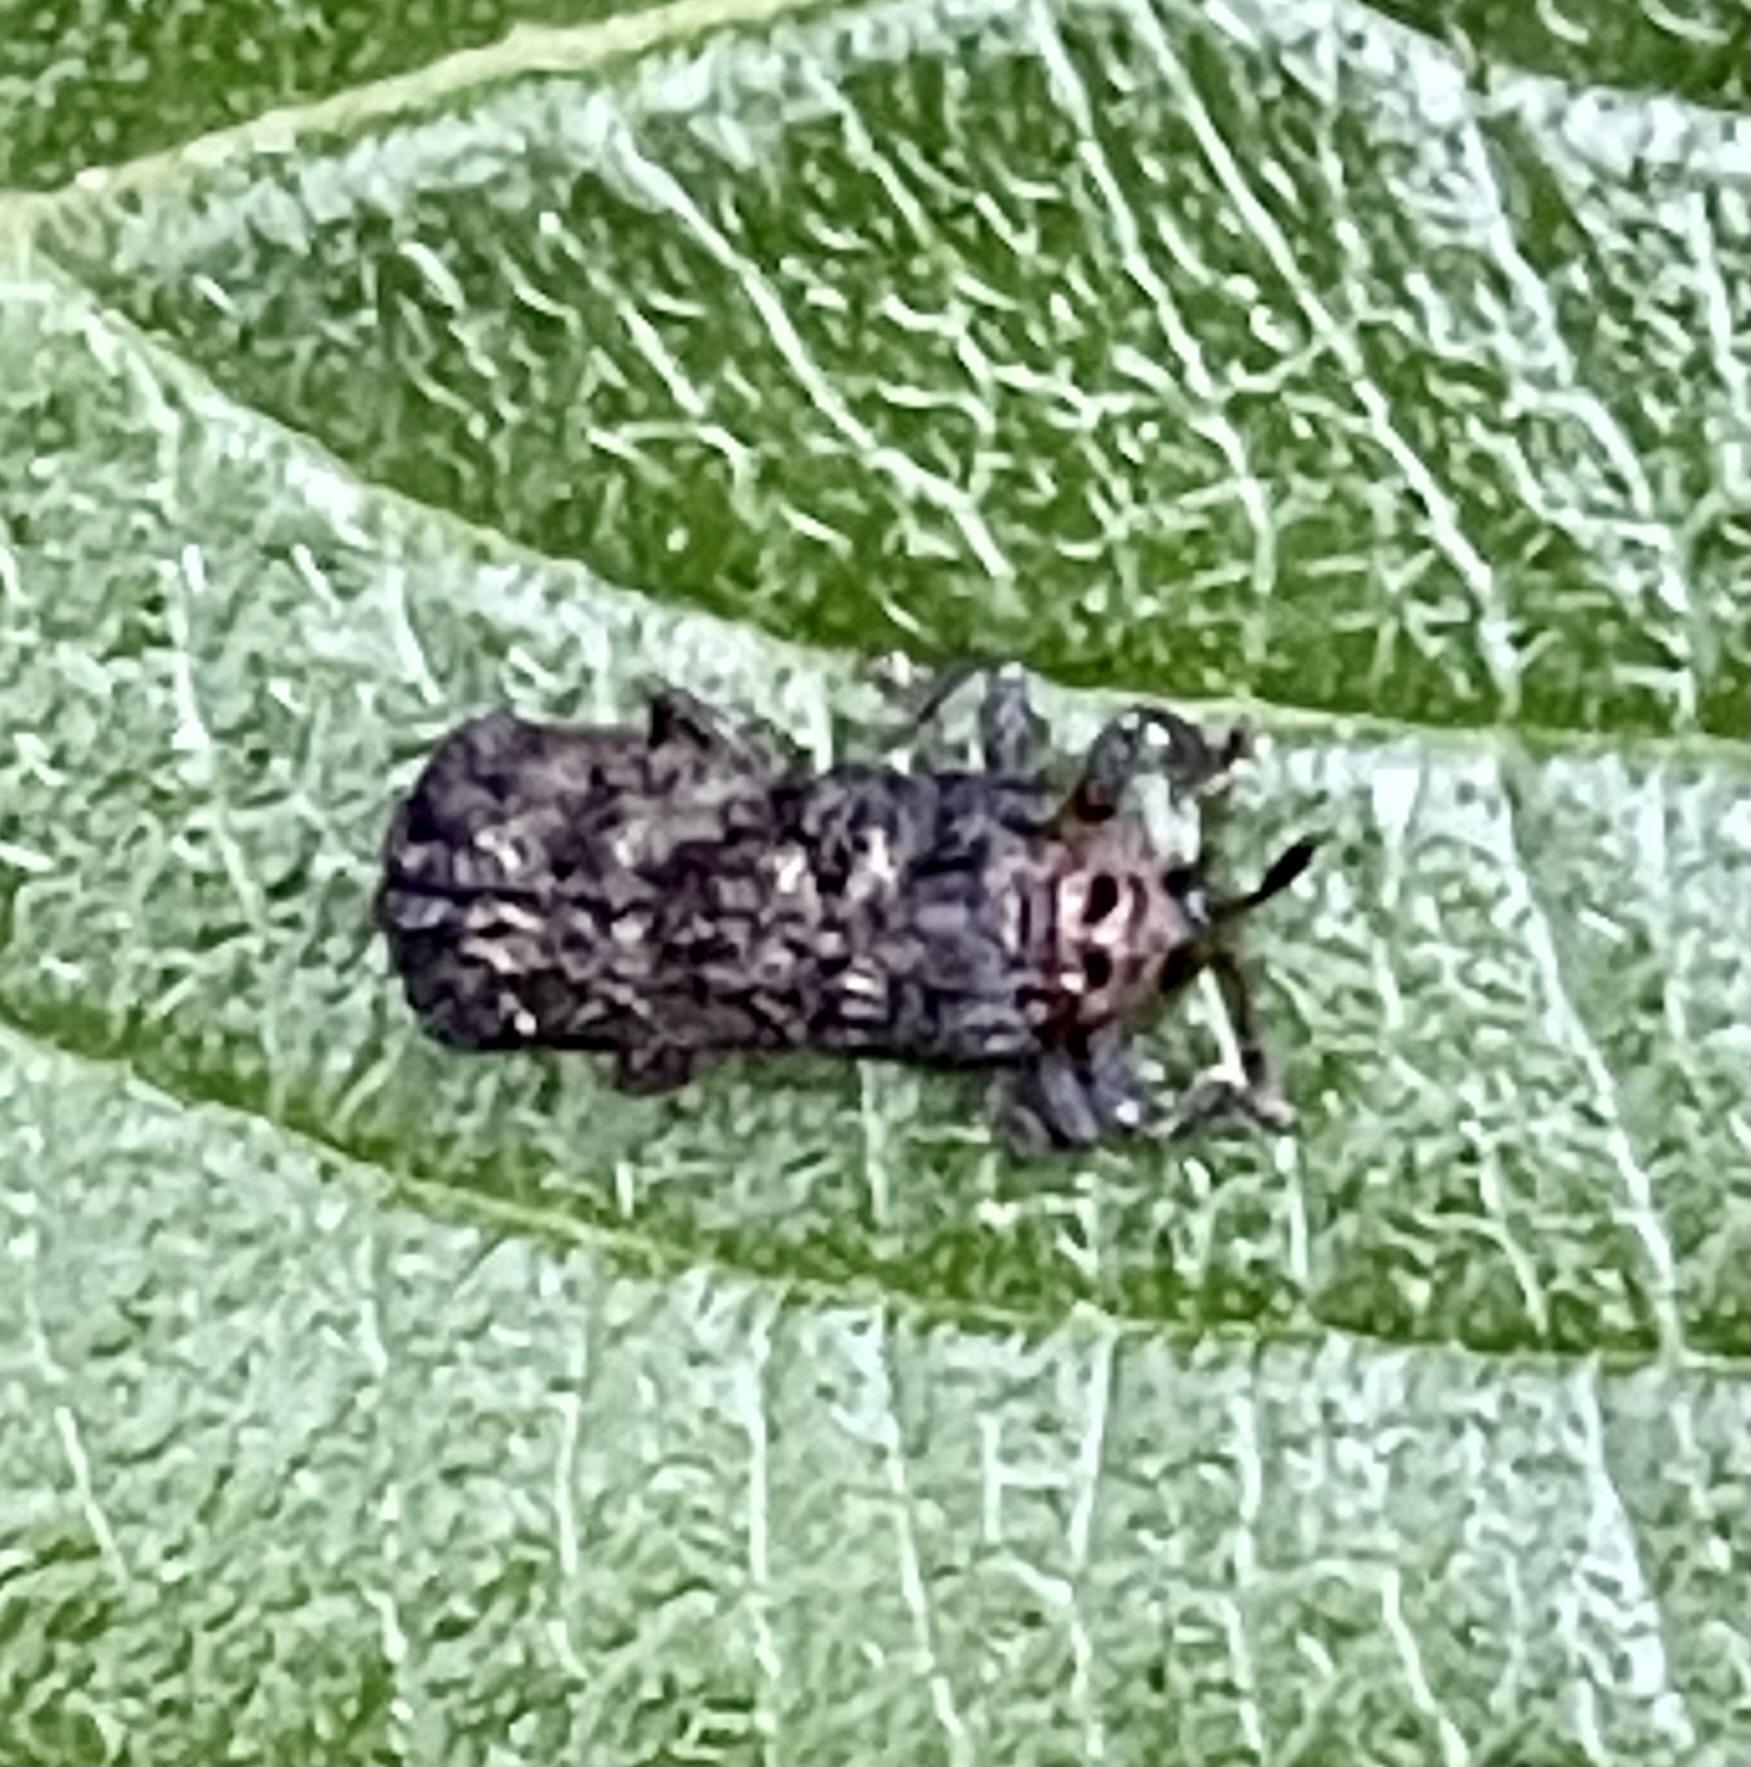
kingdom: Animalia
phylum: Arthropoda
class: Insecta
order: Coleoptera
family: Chrysomelidae
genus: Octotoma
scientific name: Octotoma scabripennis
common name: Beetle
